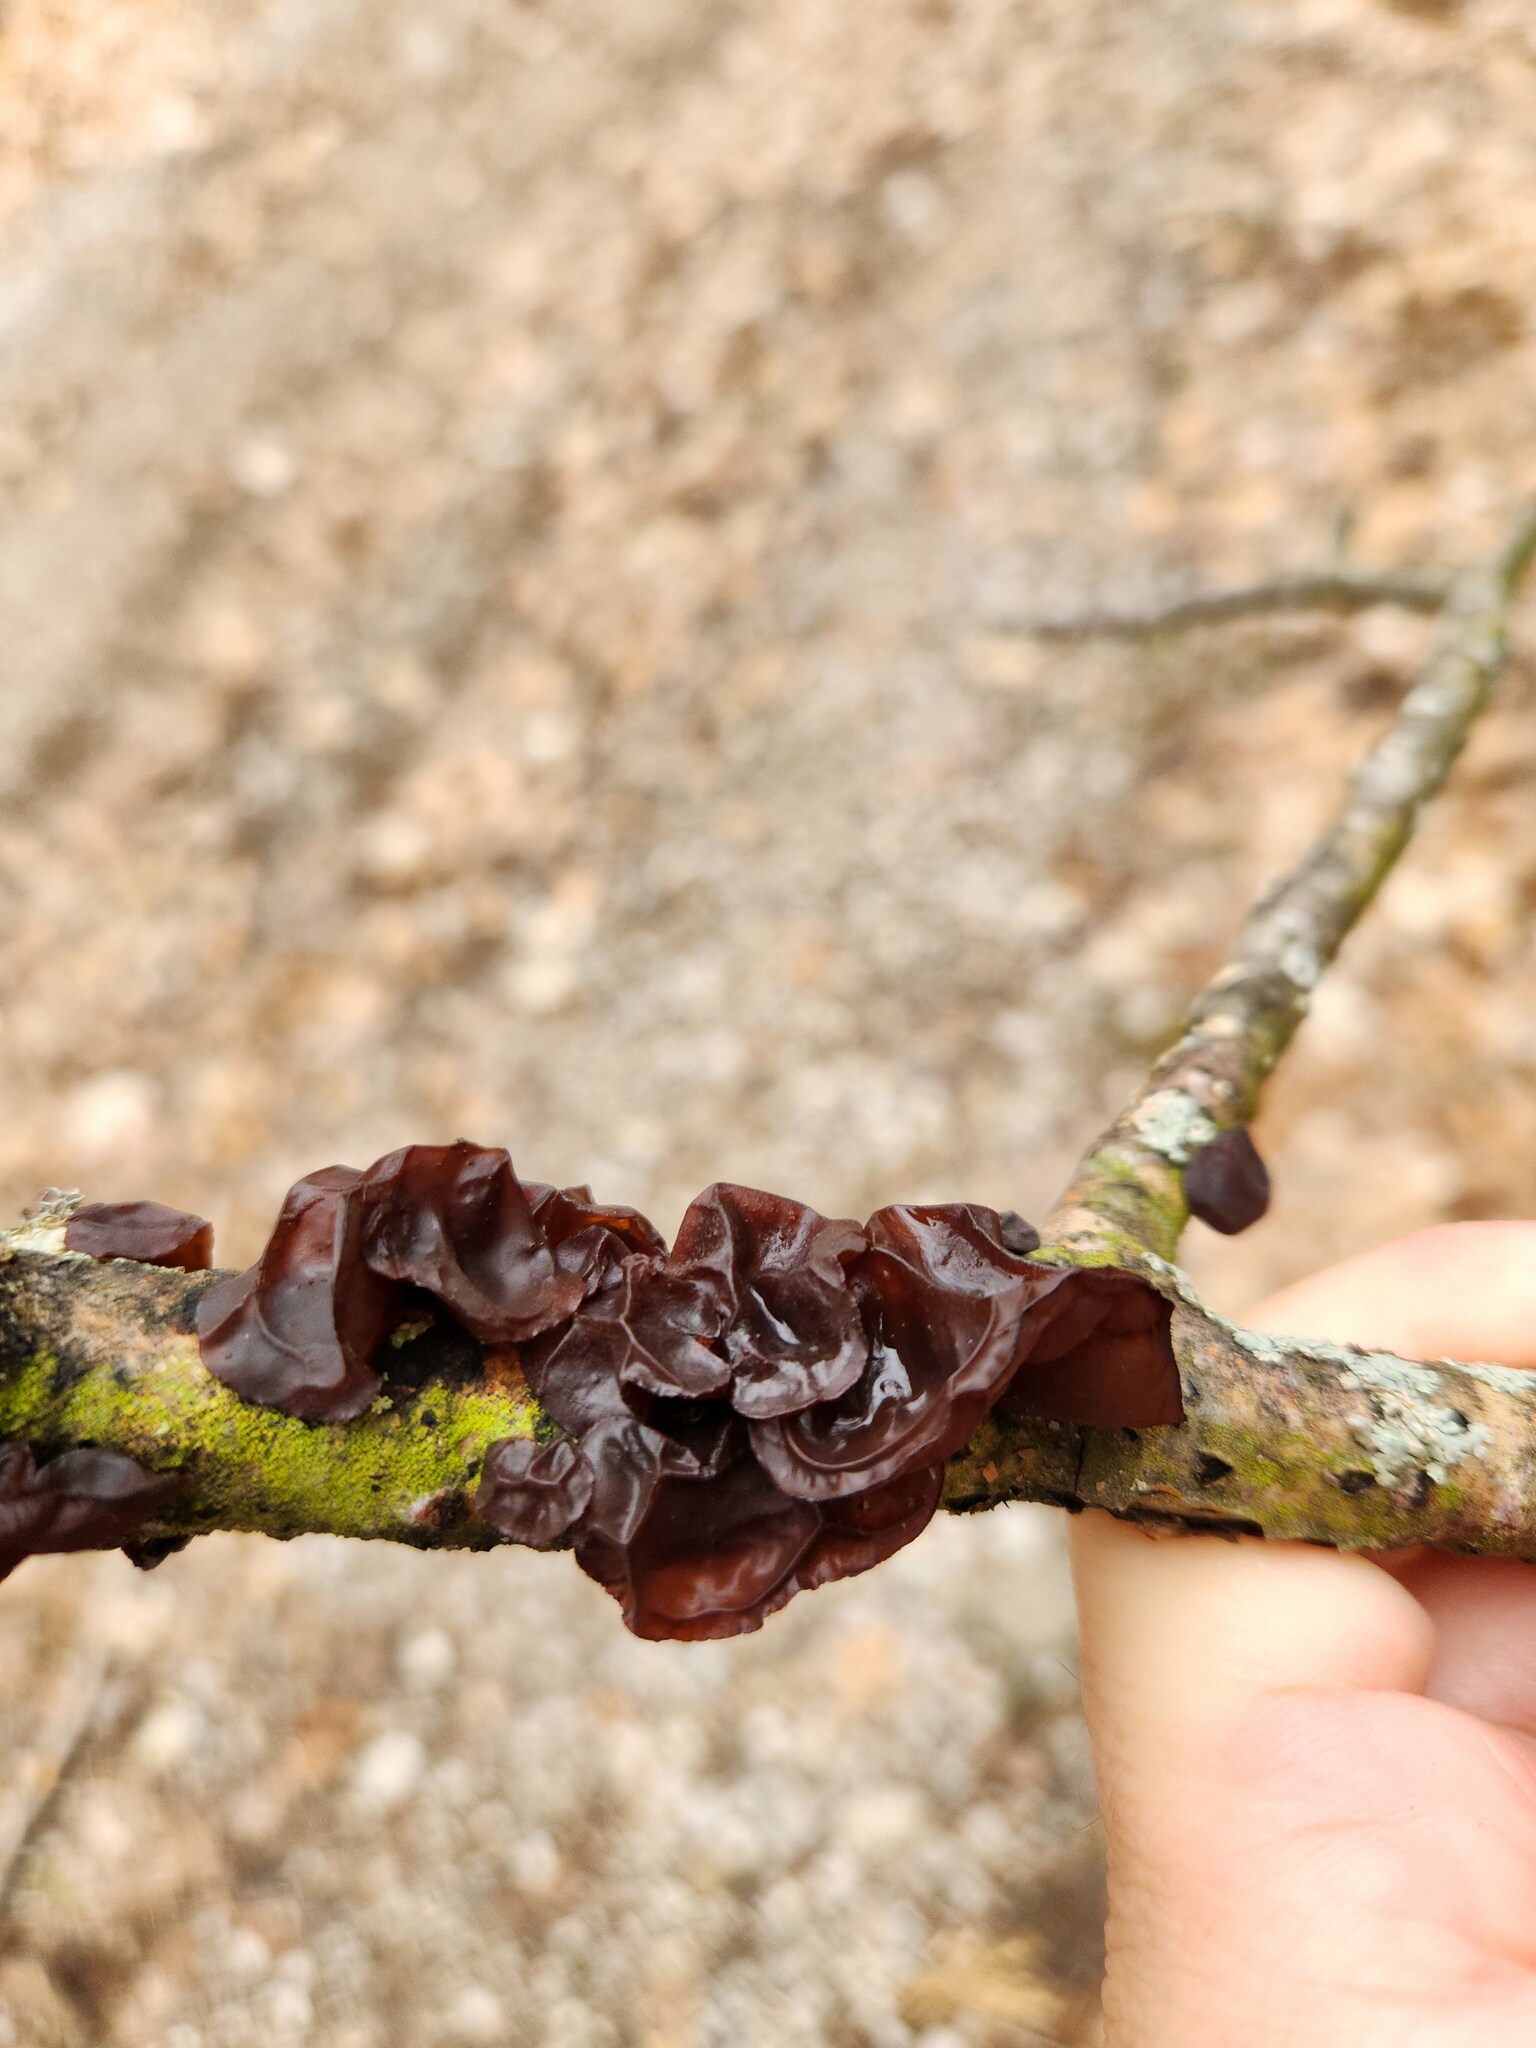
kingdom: Fungi
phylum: Basidiomycota
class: Agaricomycetes
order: Auriculariales
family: Auriculariaceae
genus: Exidia
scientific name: Exidia
